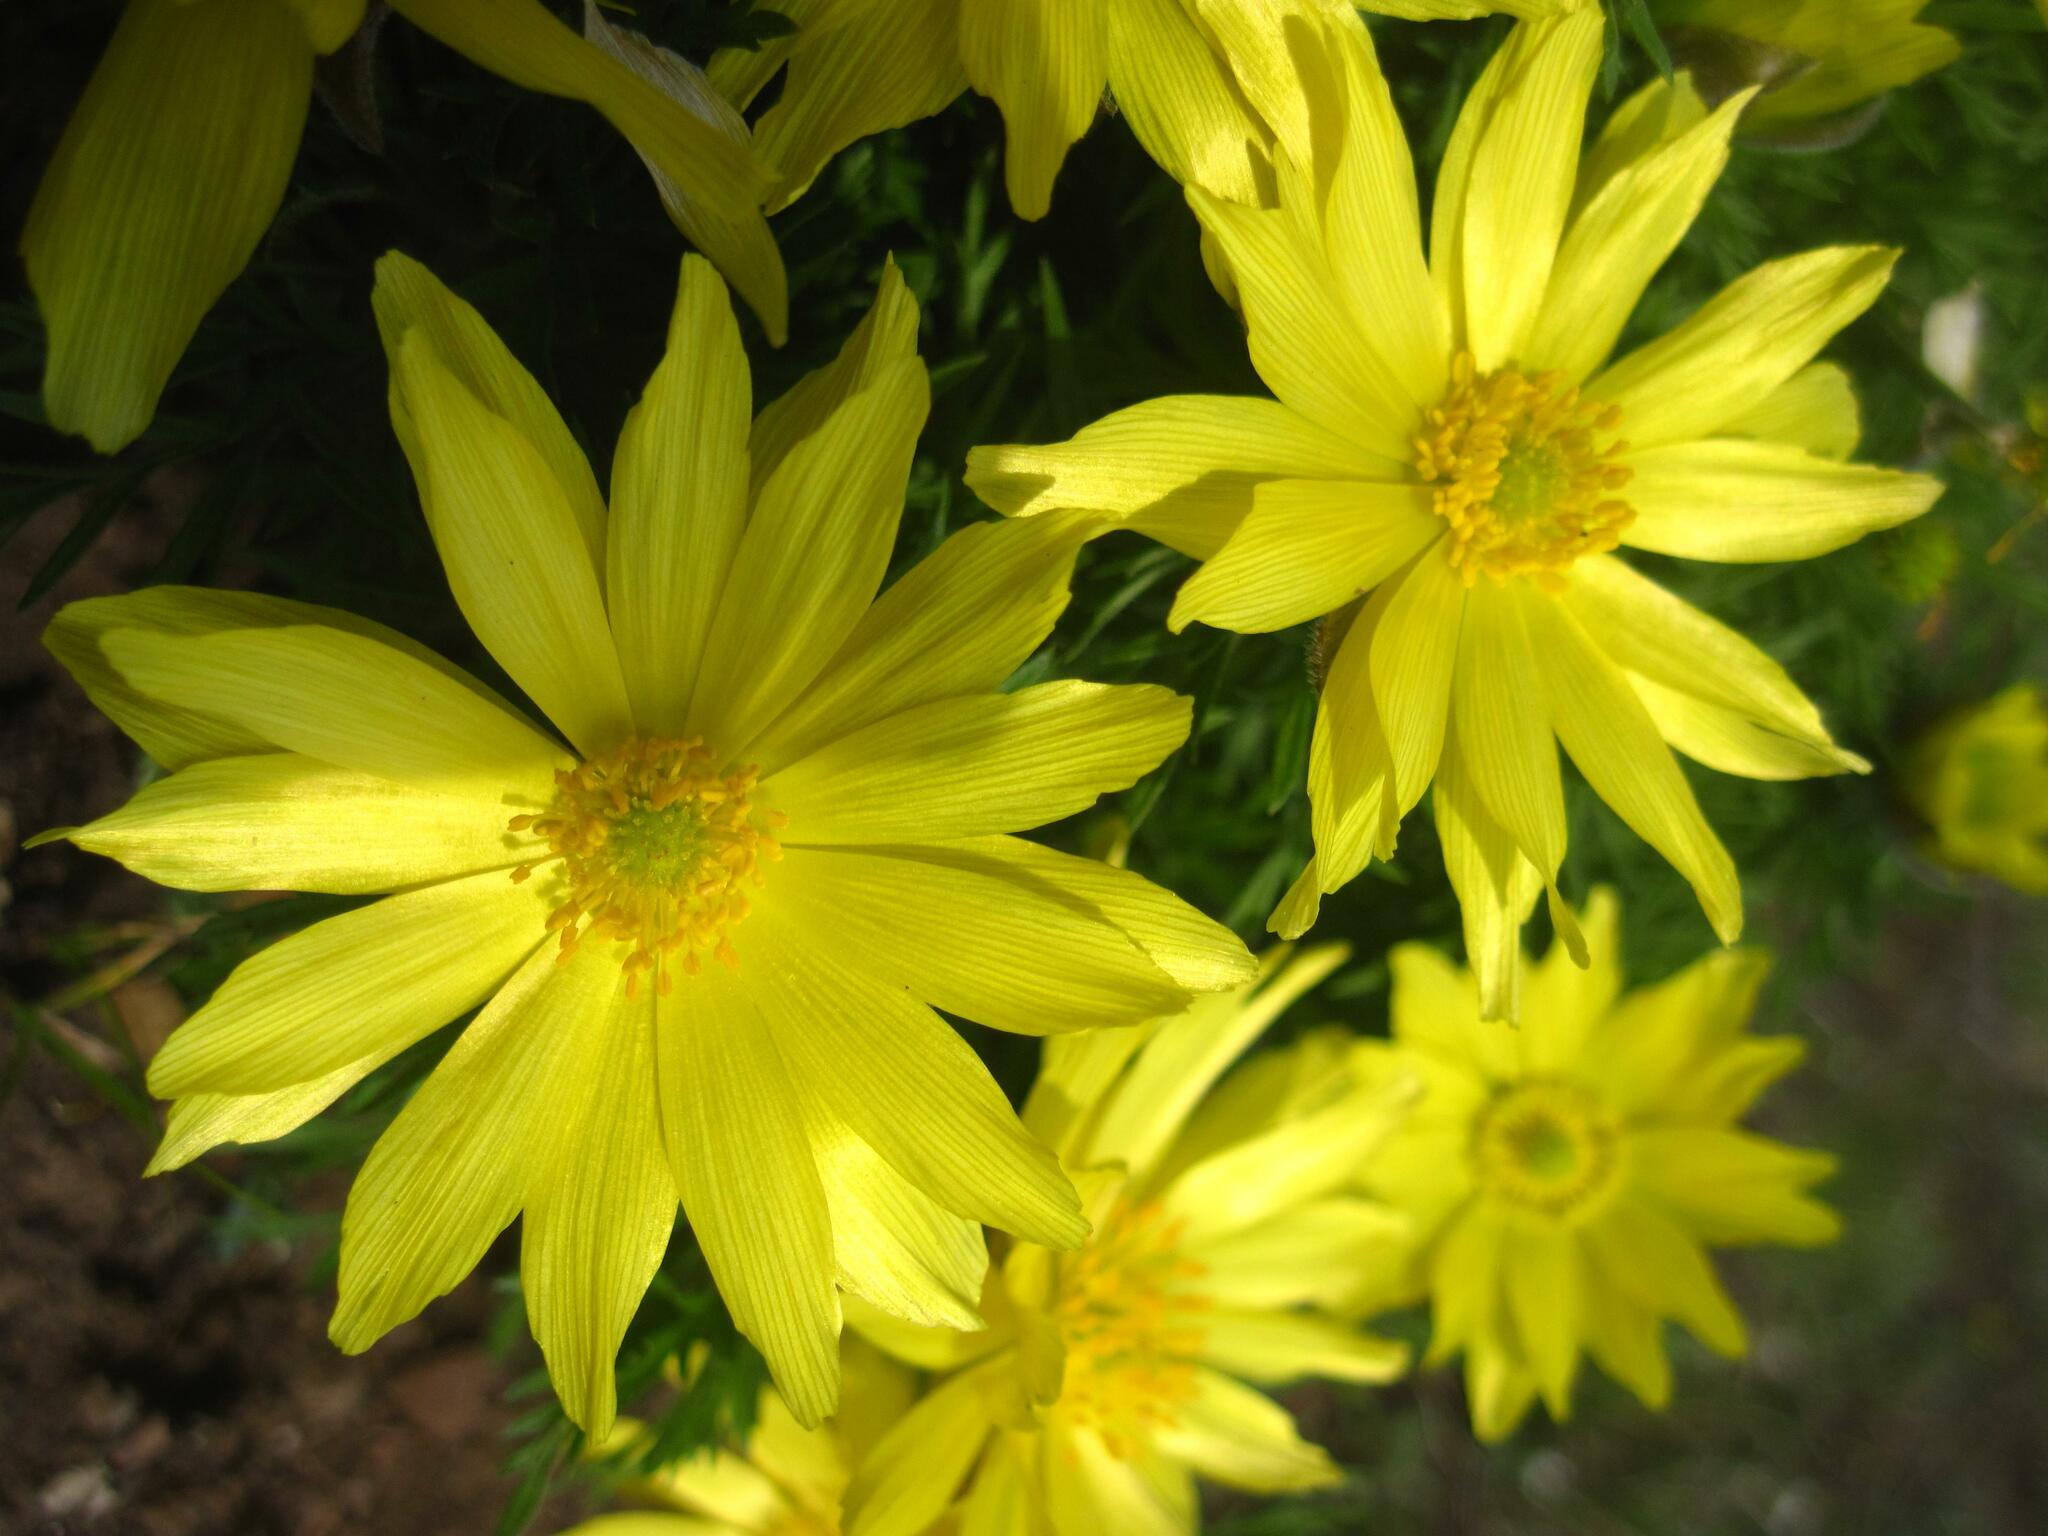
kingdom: Plantae
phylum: Tracheophyta
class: Magnoliopsida
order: Ranunculales
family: Ranunculaceae
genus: Adonis
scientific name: Adonis volgensis
